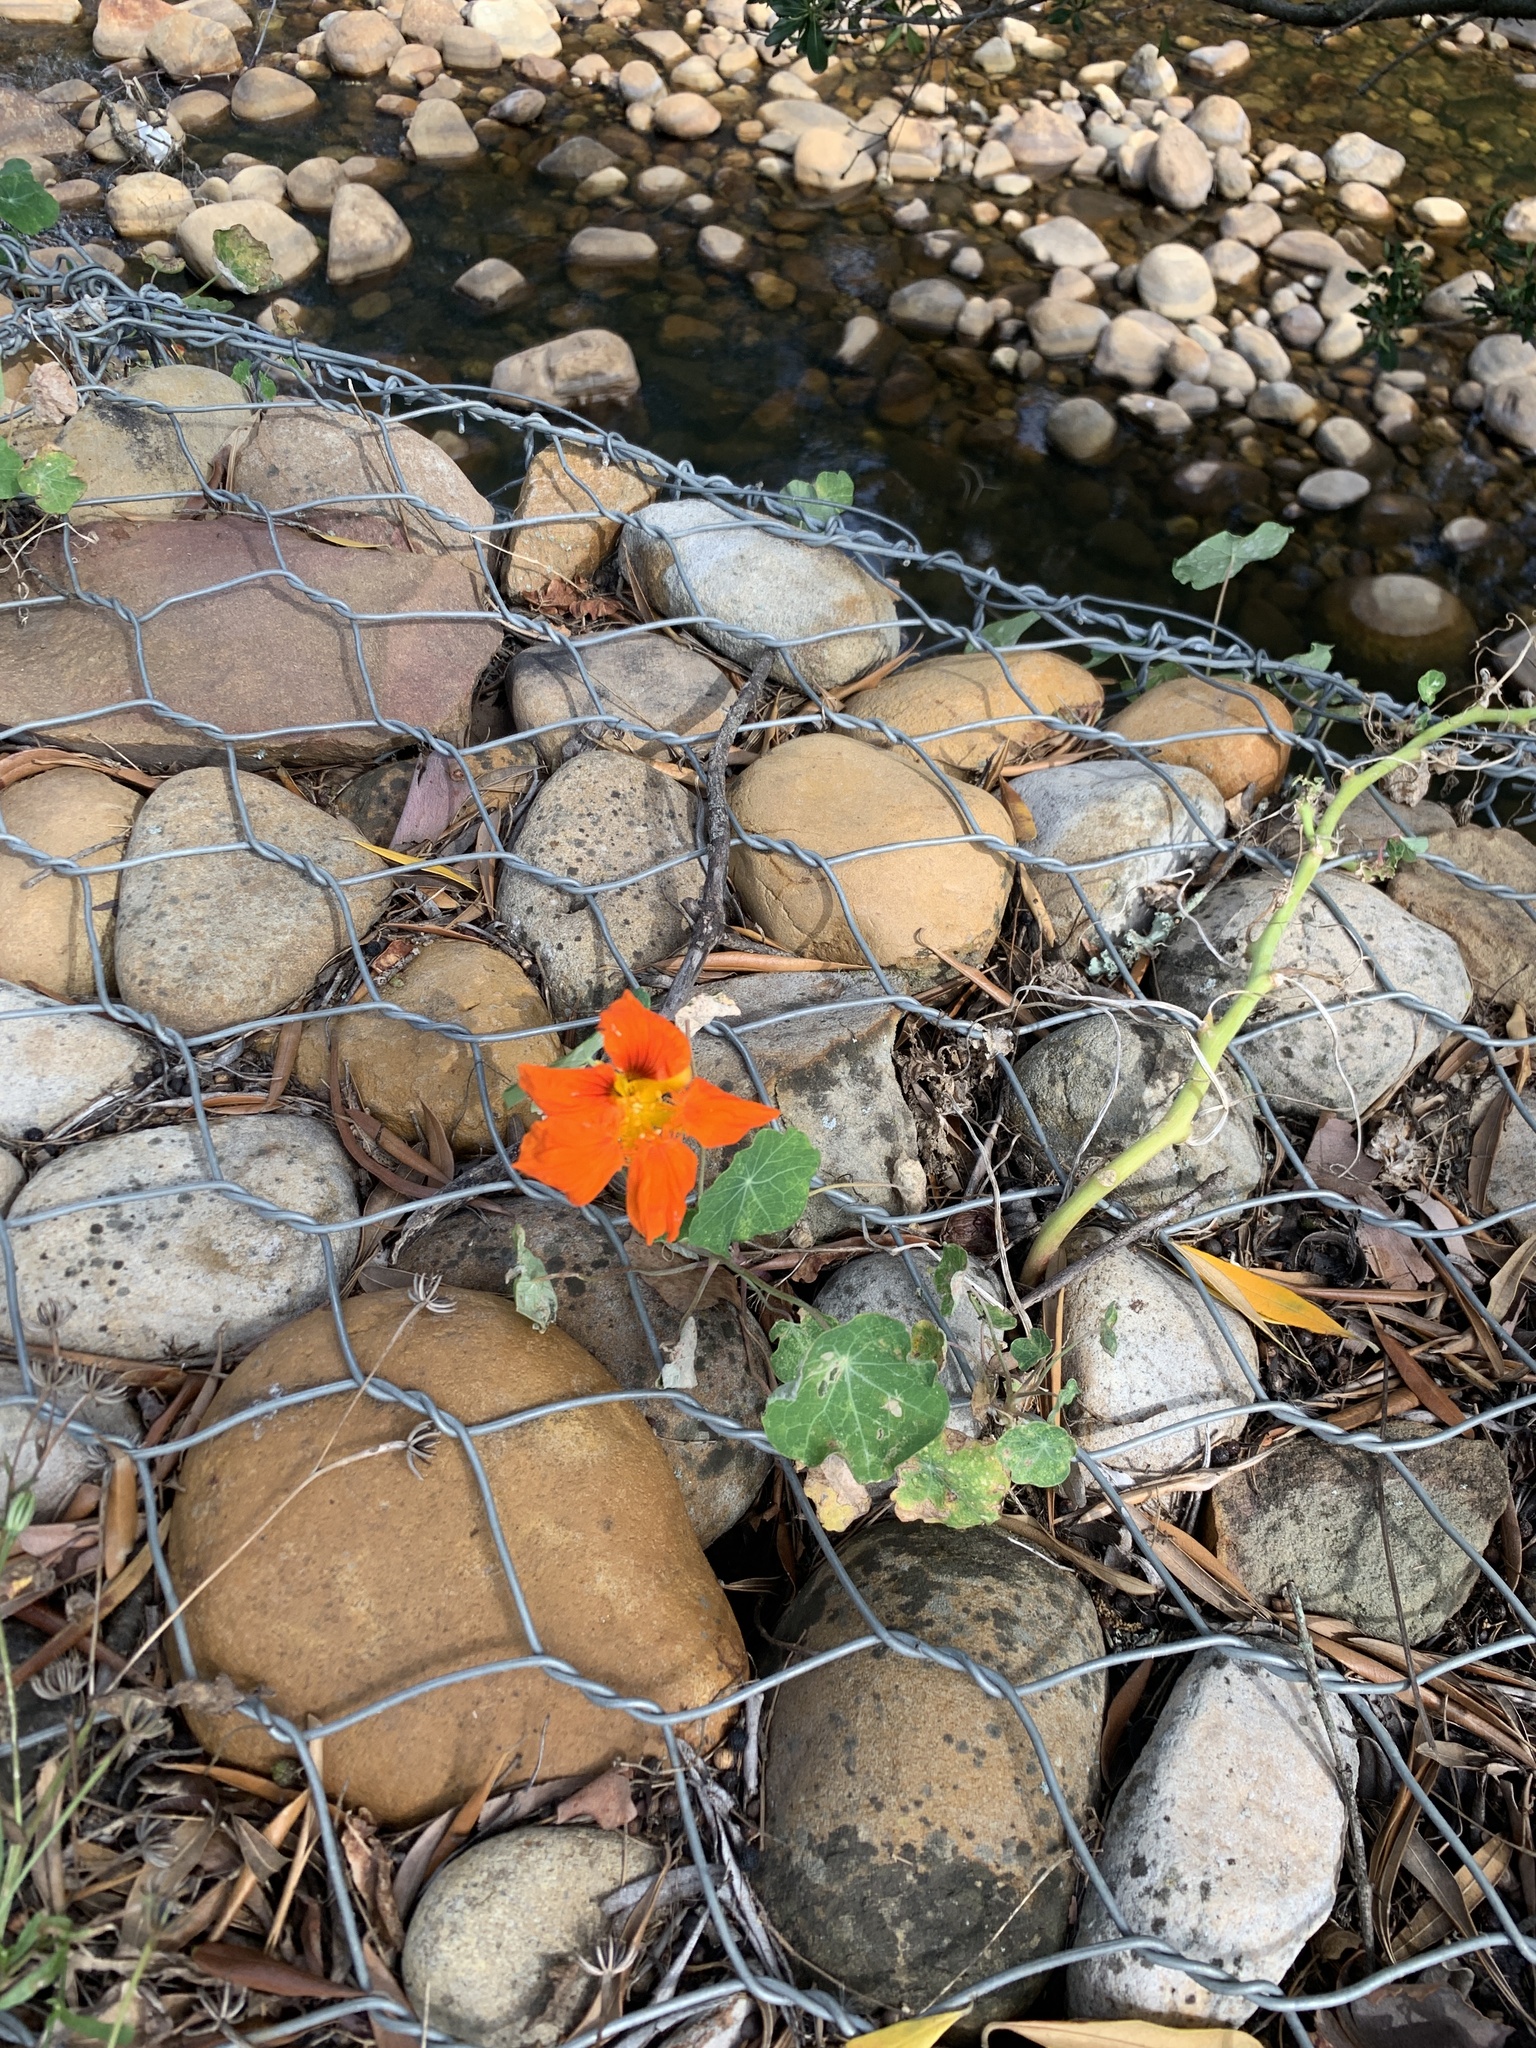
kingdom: Plantae
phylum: Tracheophyta
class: Magnoliopsida
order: Brassicales
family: Tropaeolaceae
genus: Tropaeolum
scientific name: Tropaeolum majus
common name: Nasturtium
